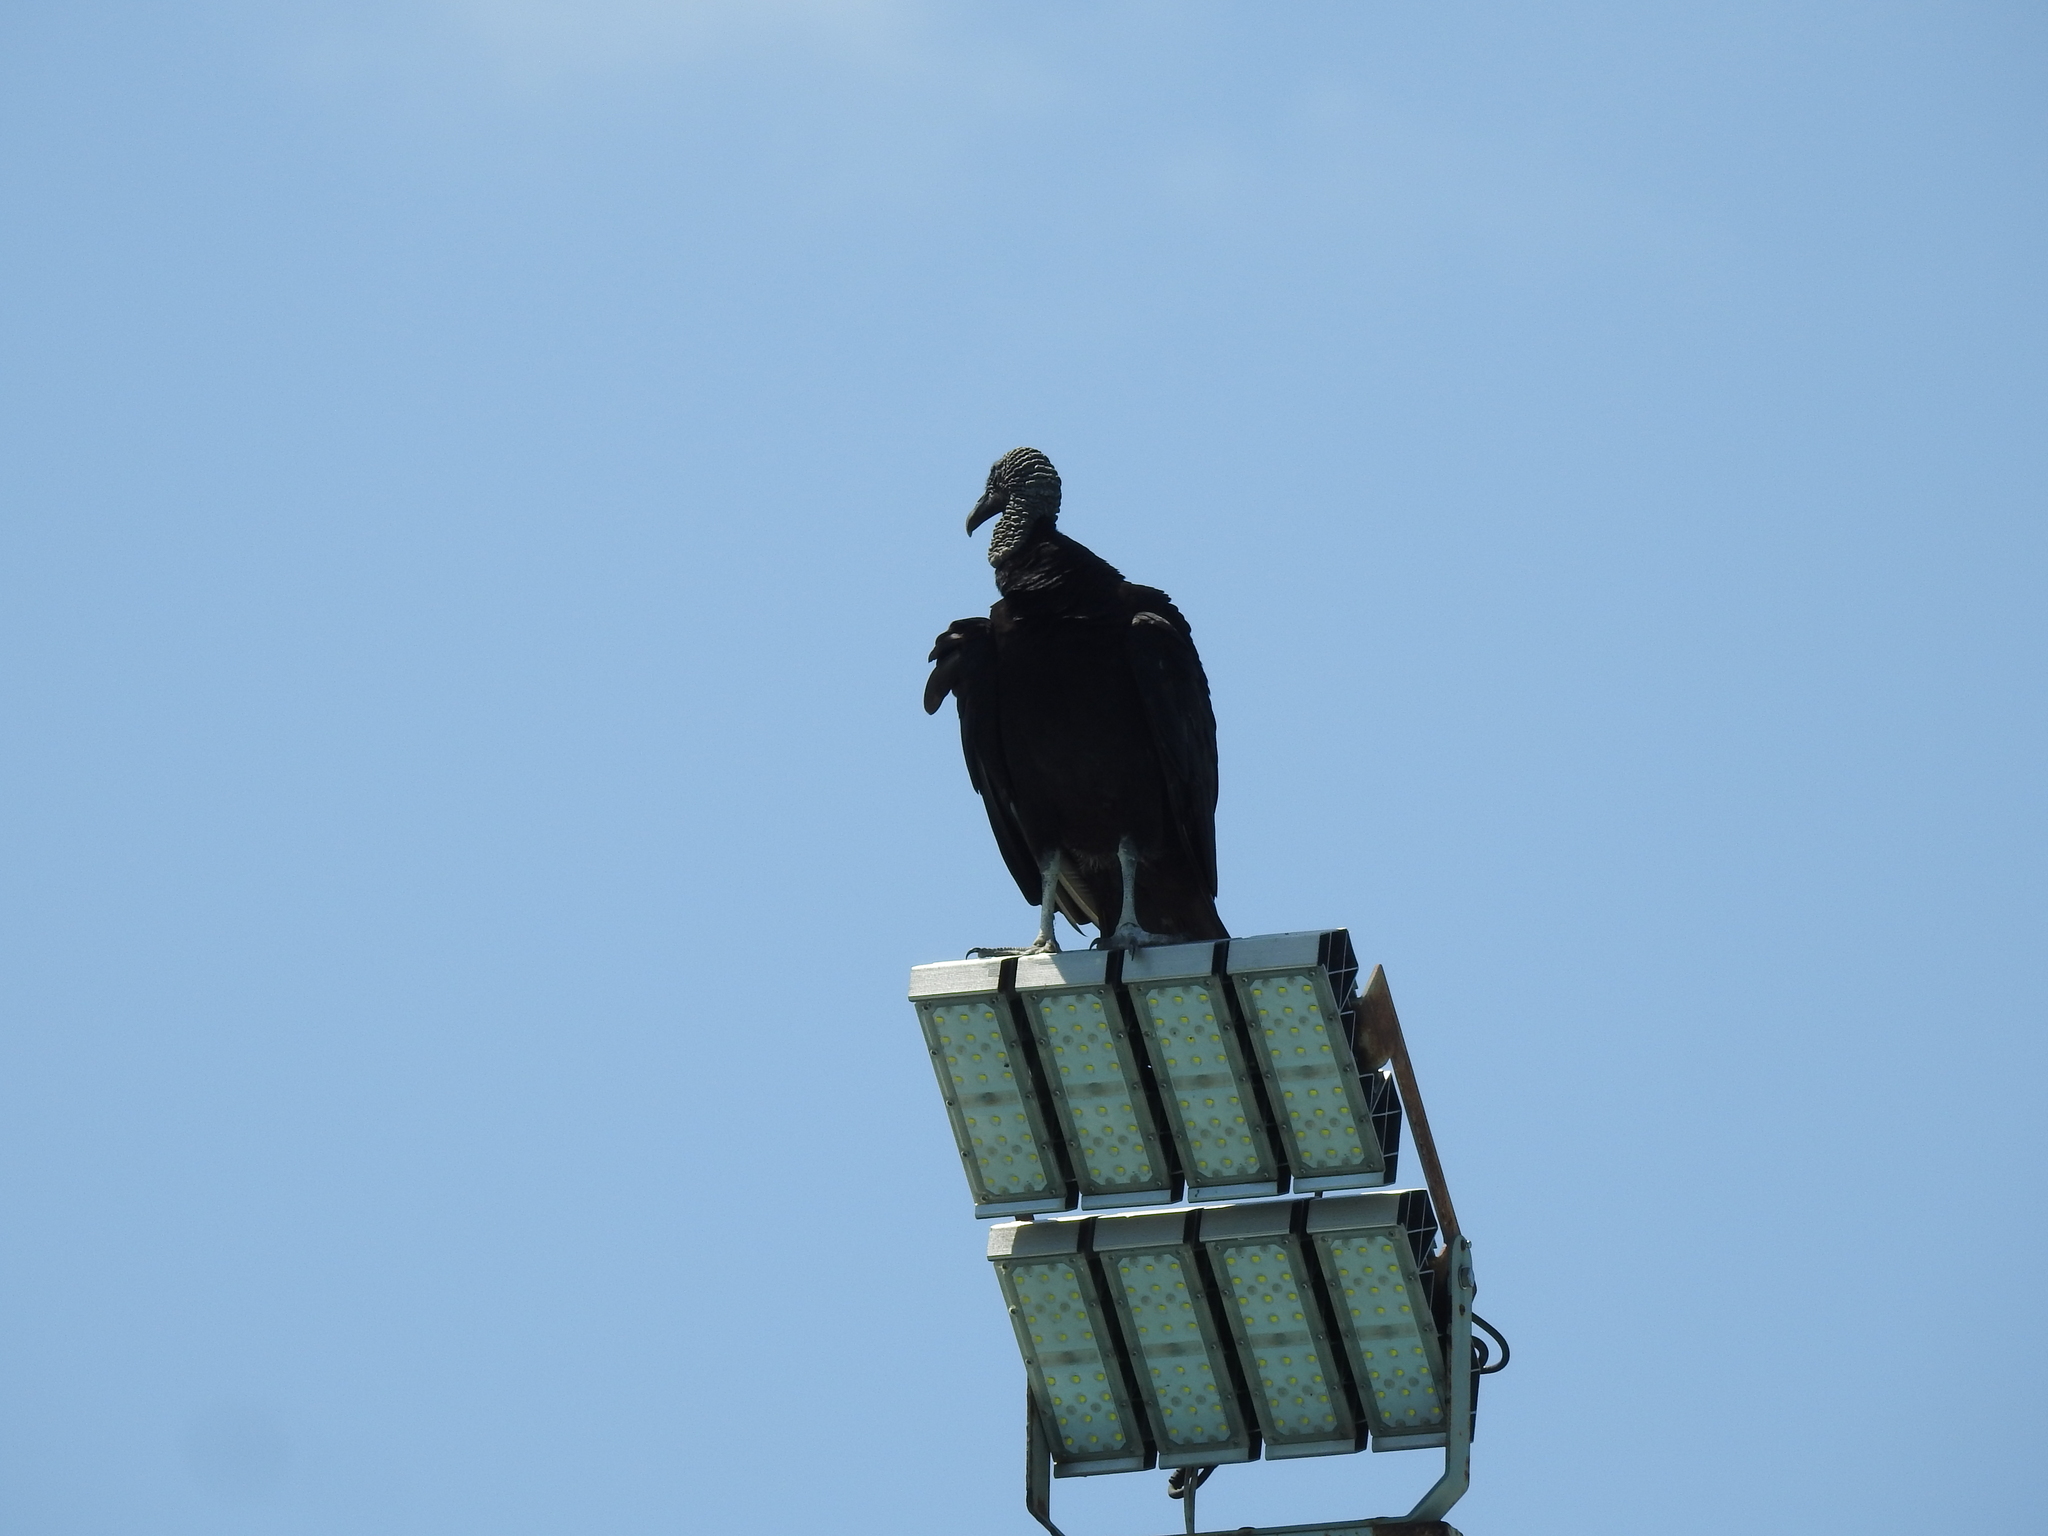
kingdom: Animalia
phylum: Chordata
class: Aves
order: Accipitriformes
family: Cathartidae
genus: Coragyps
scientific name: Coragyps atratus
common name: Black vulture
